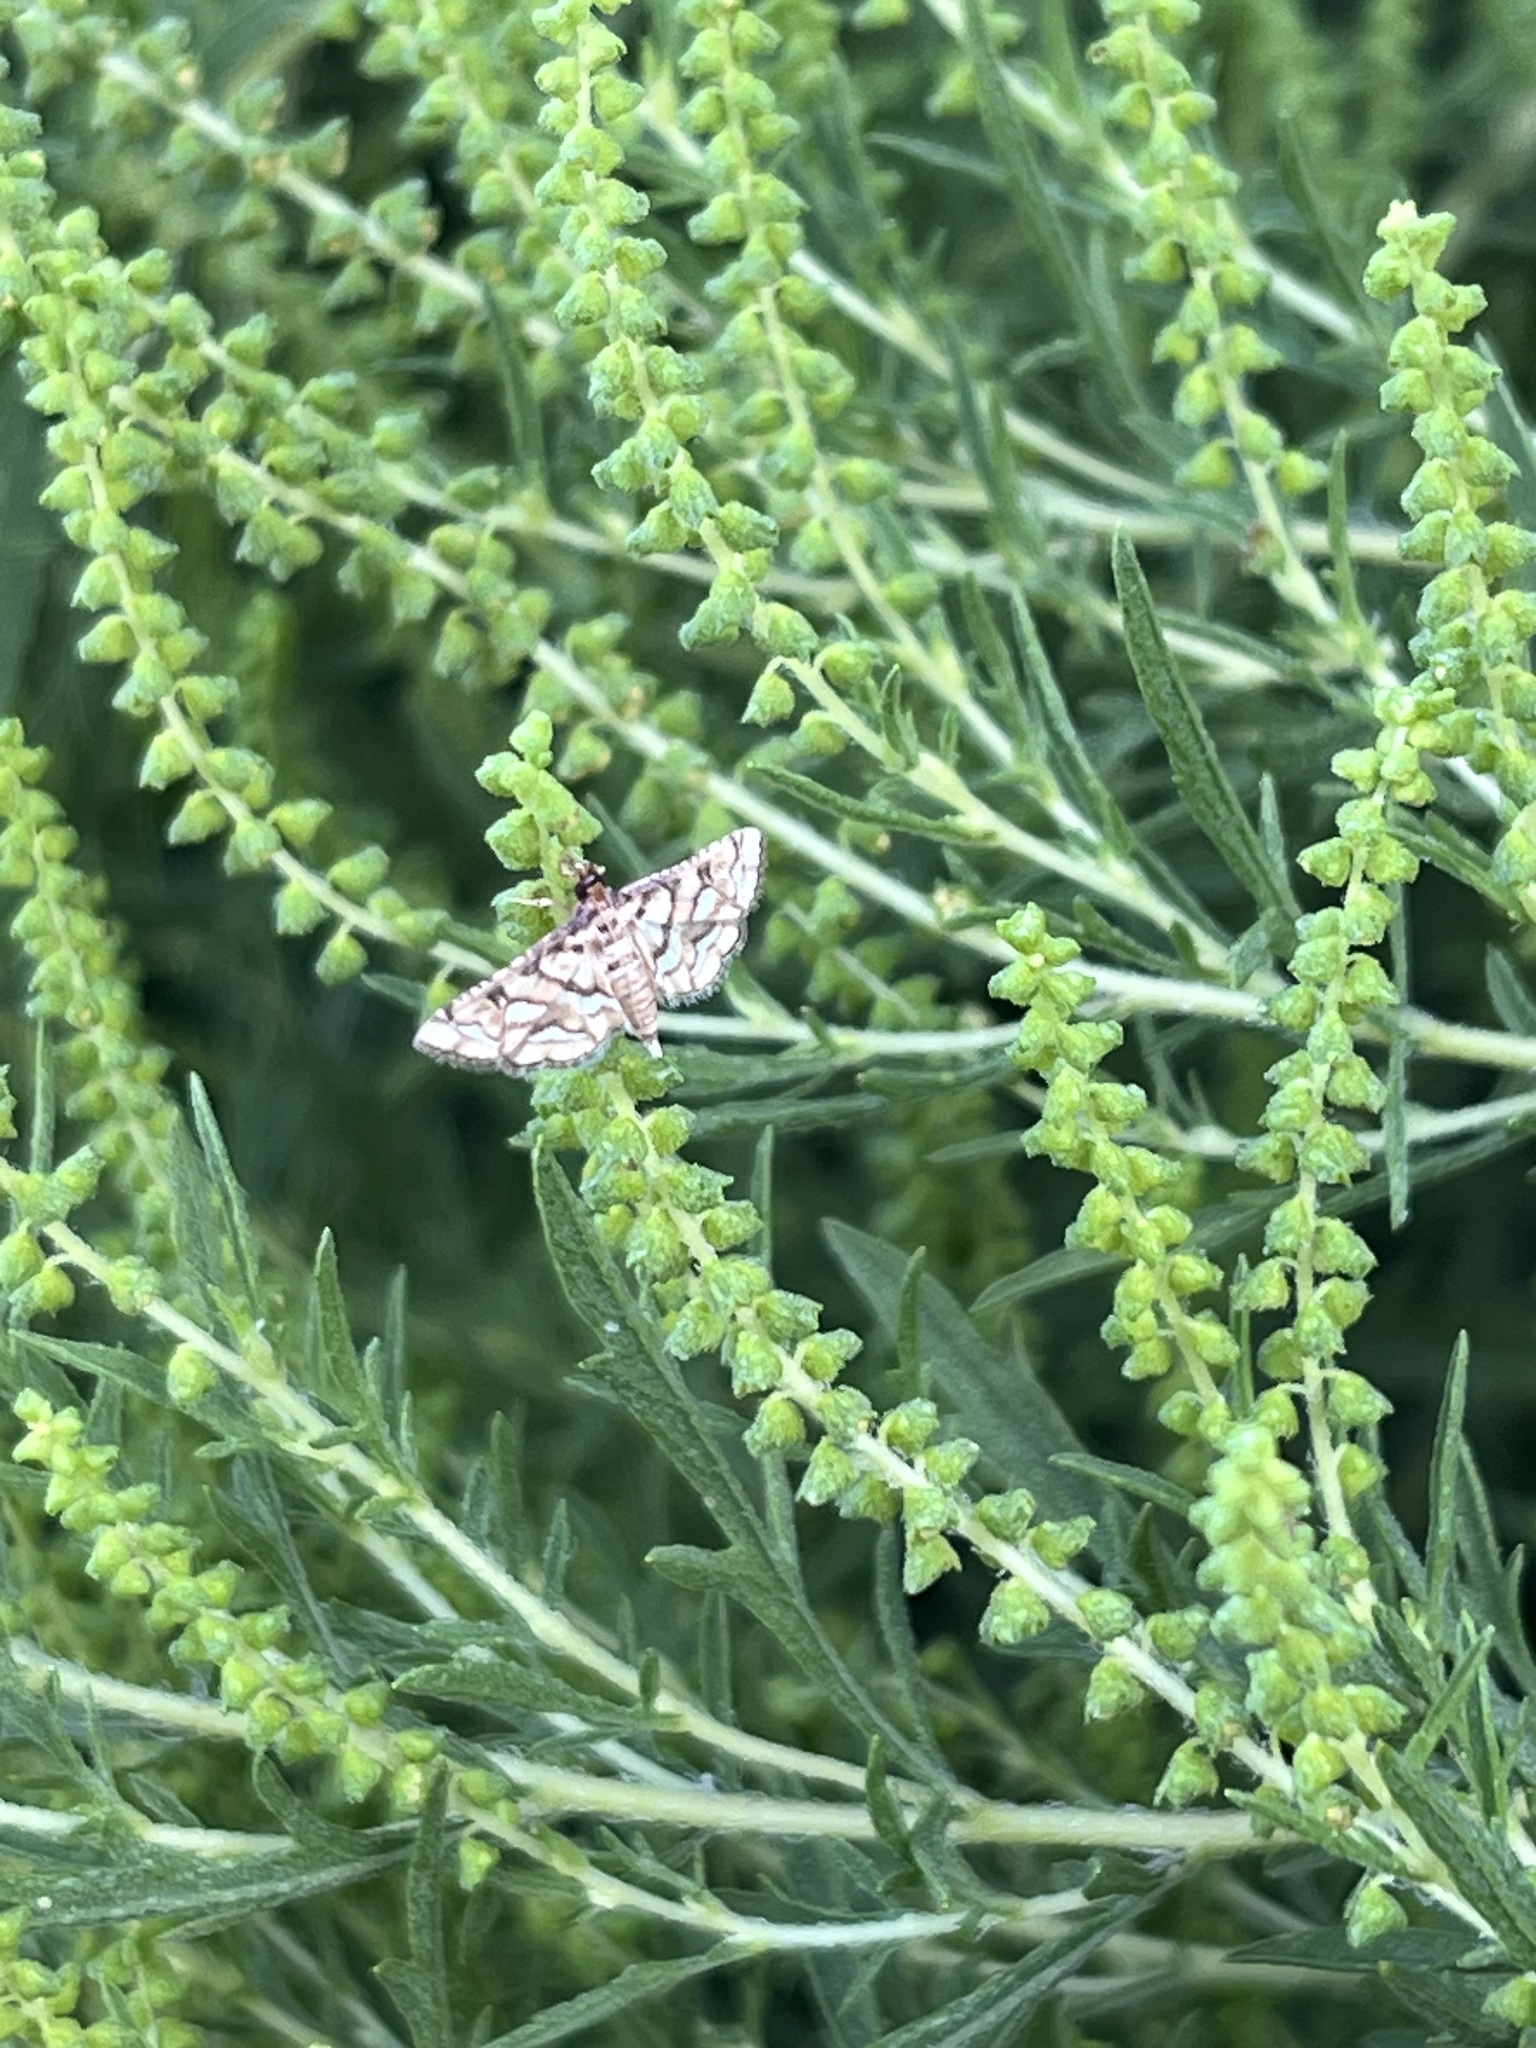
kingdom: Animalia
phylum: Arthropoda
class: Insecta
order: Lepidoptera
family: Crambidae
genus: Hileithia
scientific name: Hileithia magualis
